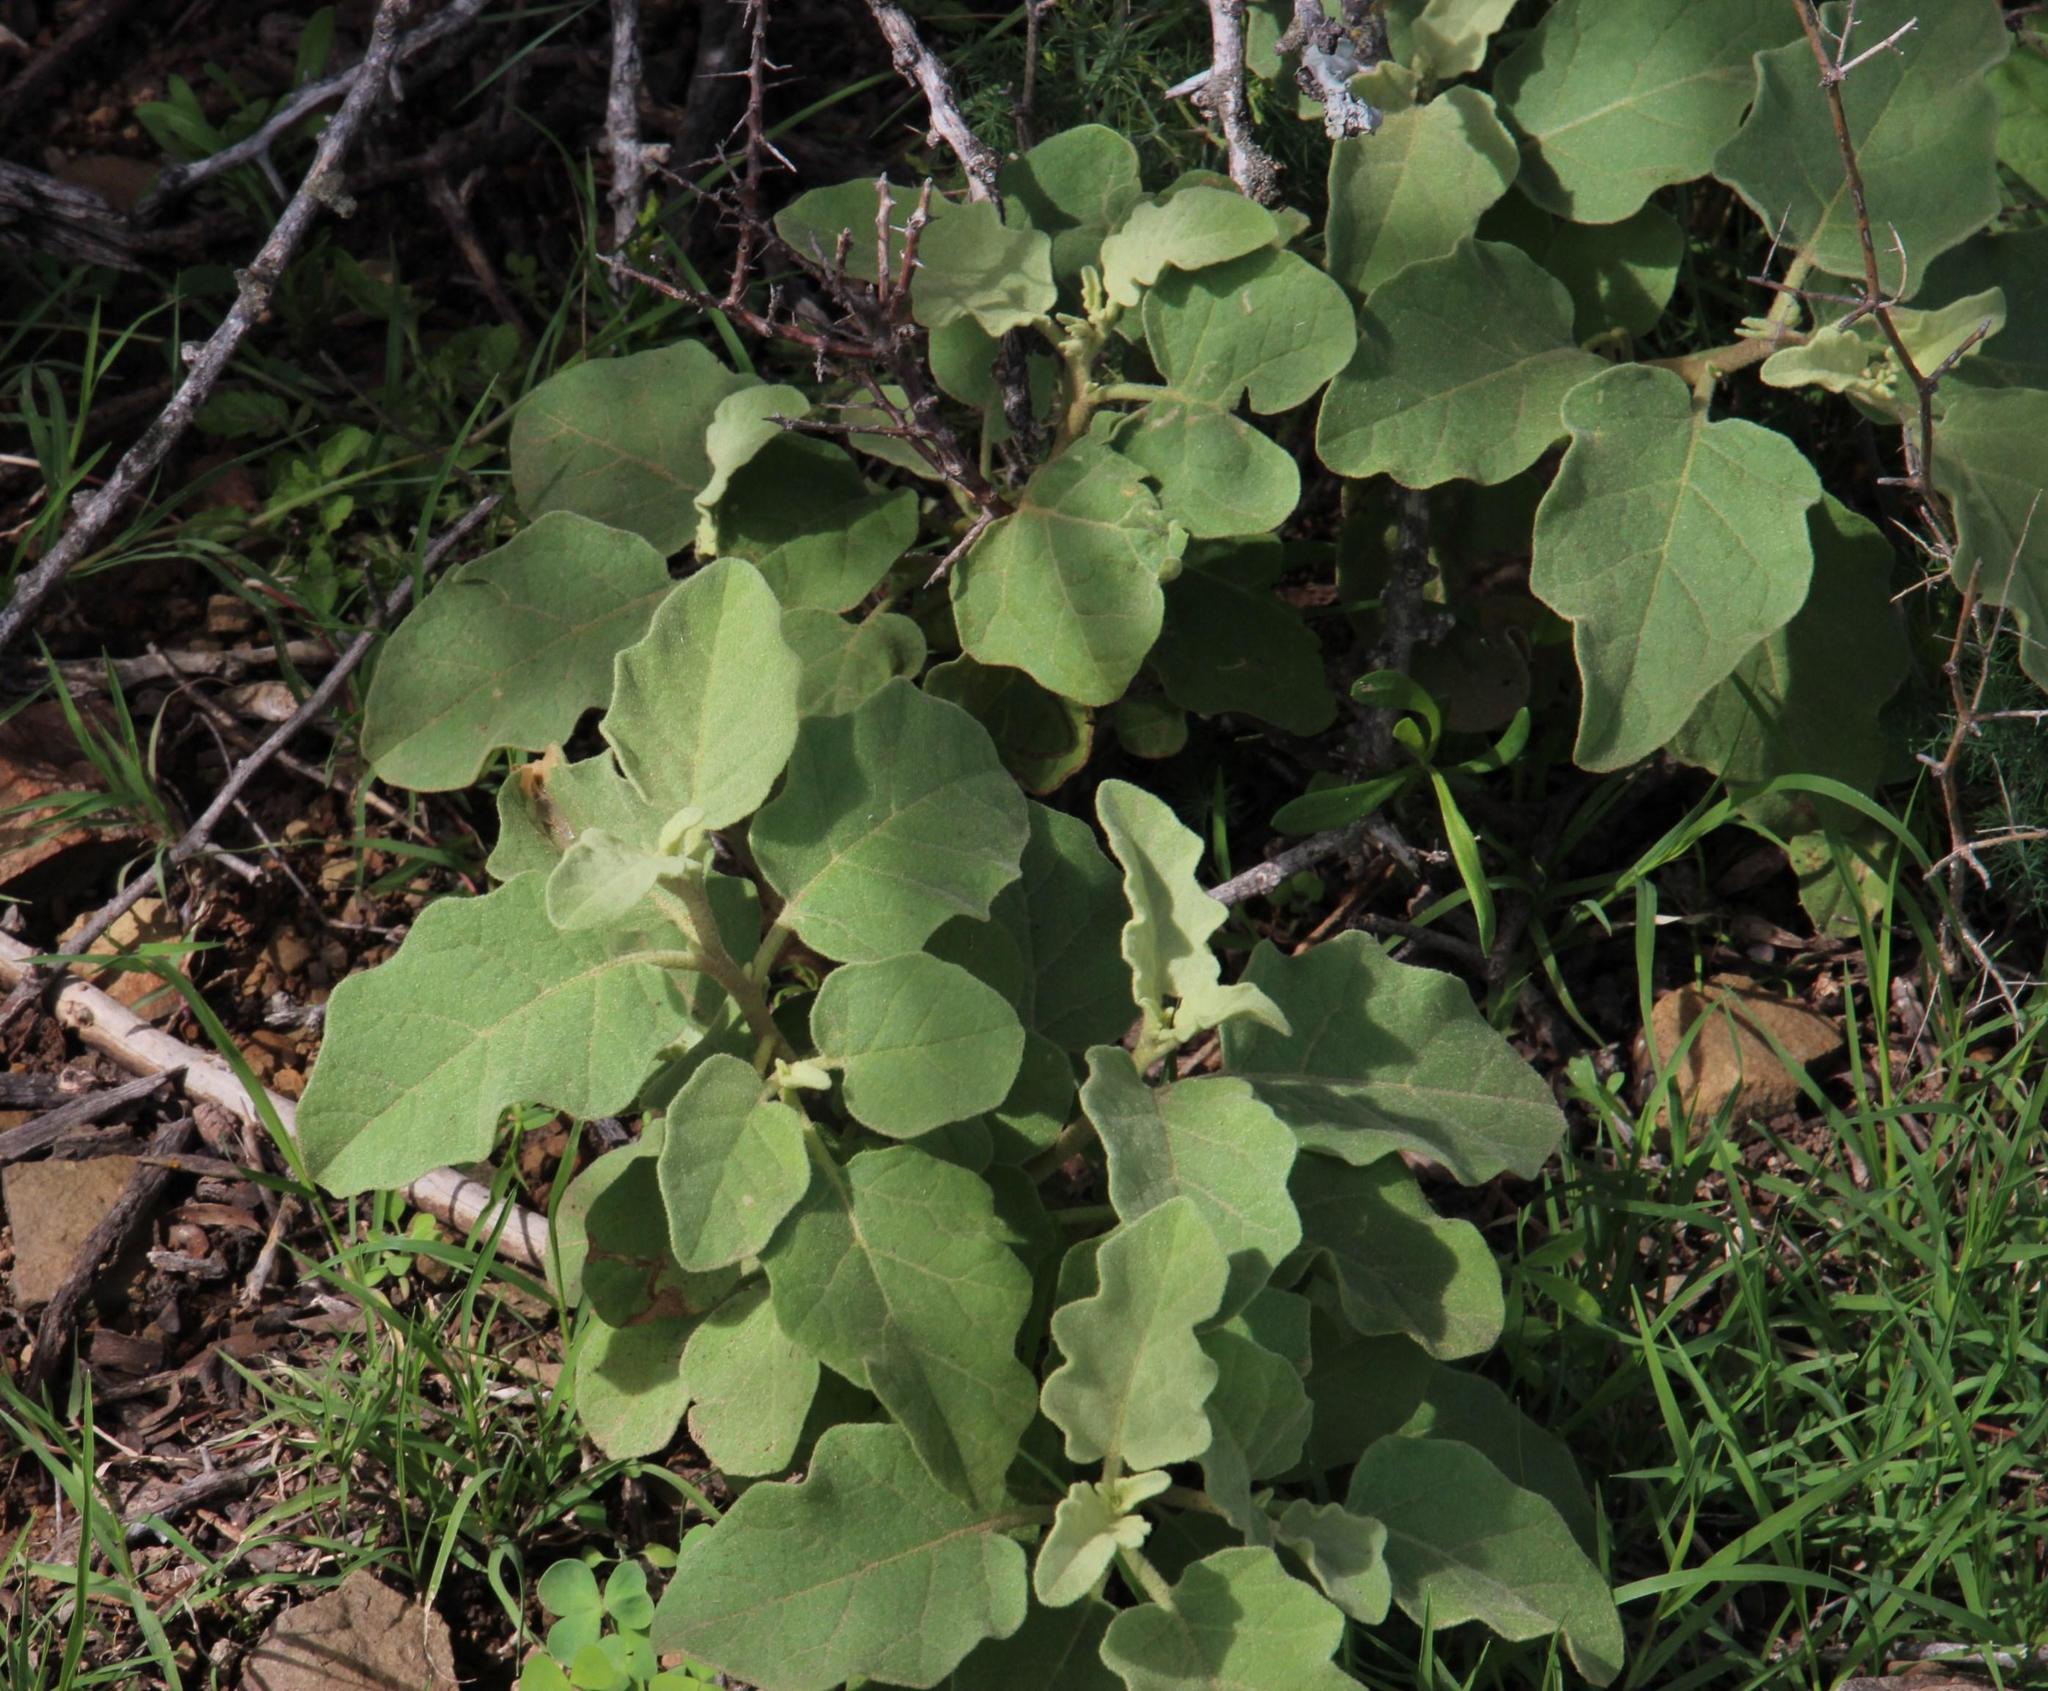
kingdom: Plantae
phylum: Tracheophyta
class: Magnoliopsida
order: Solanales
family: Solanaceae
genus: Solanum
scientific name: Solanum tomentosum
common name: Wild aubergine
